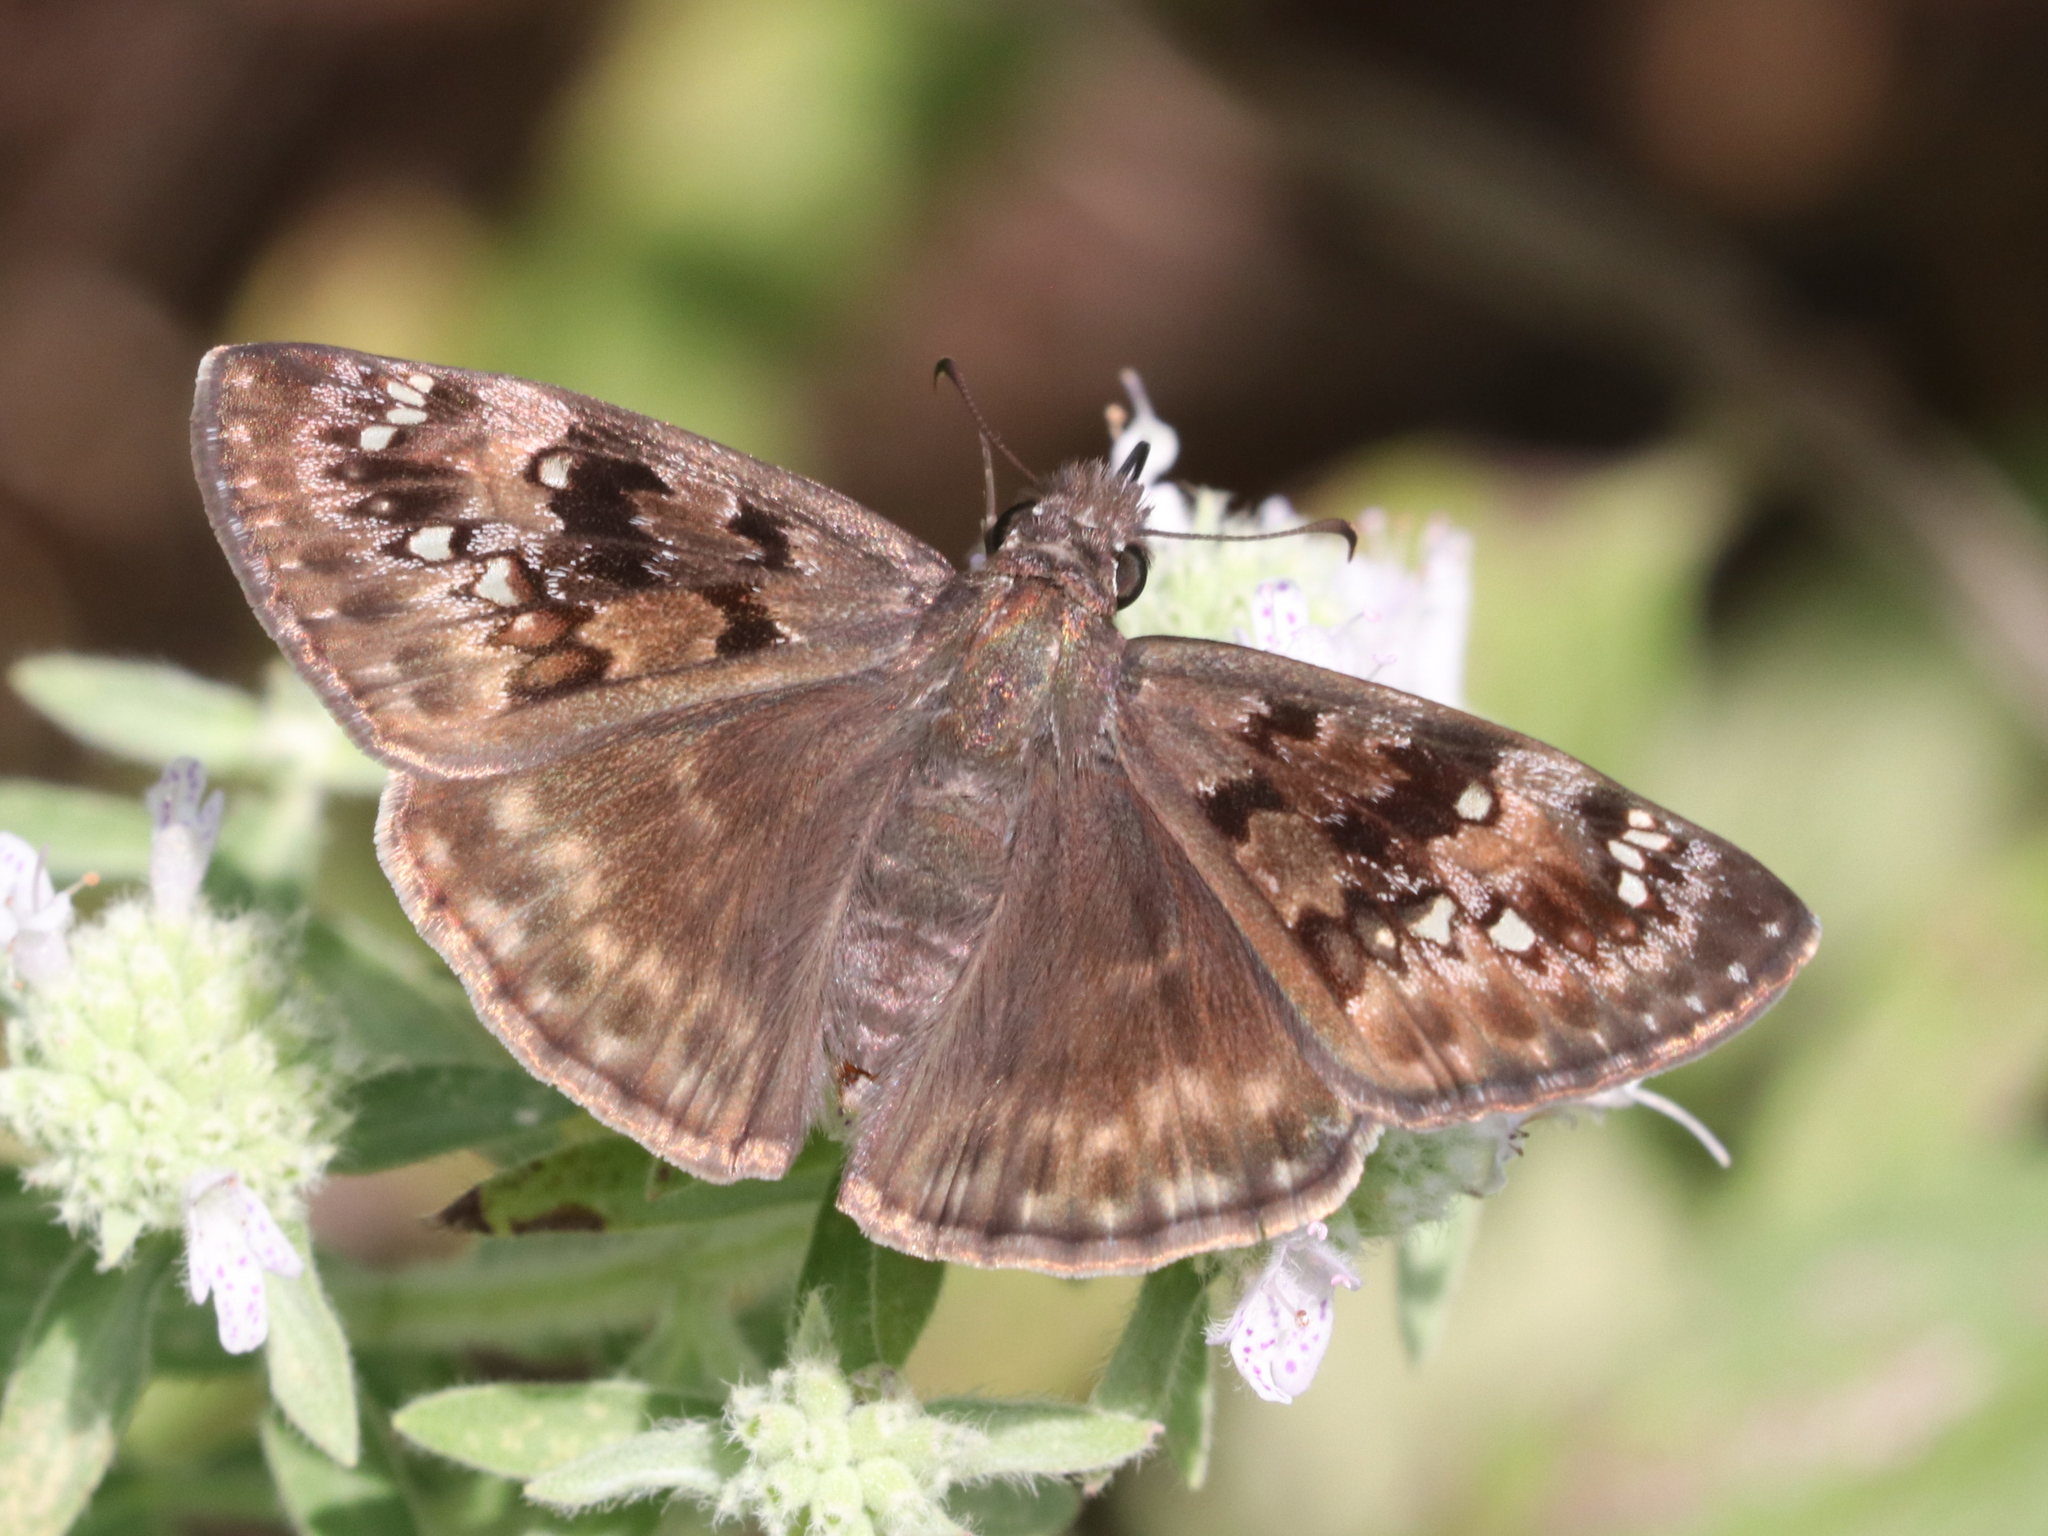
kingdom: Animalia
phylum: Arthropoda
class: Insecta
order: Lepidoptera
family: Hesperiidae
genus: Erynnis
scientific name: Erynnis horatius
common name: Horace's duskywing
